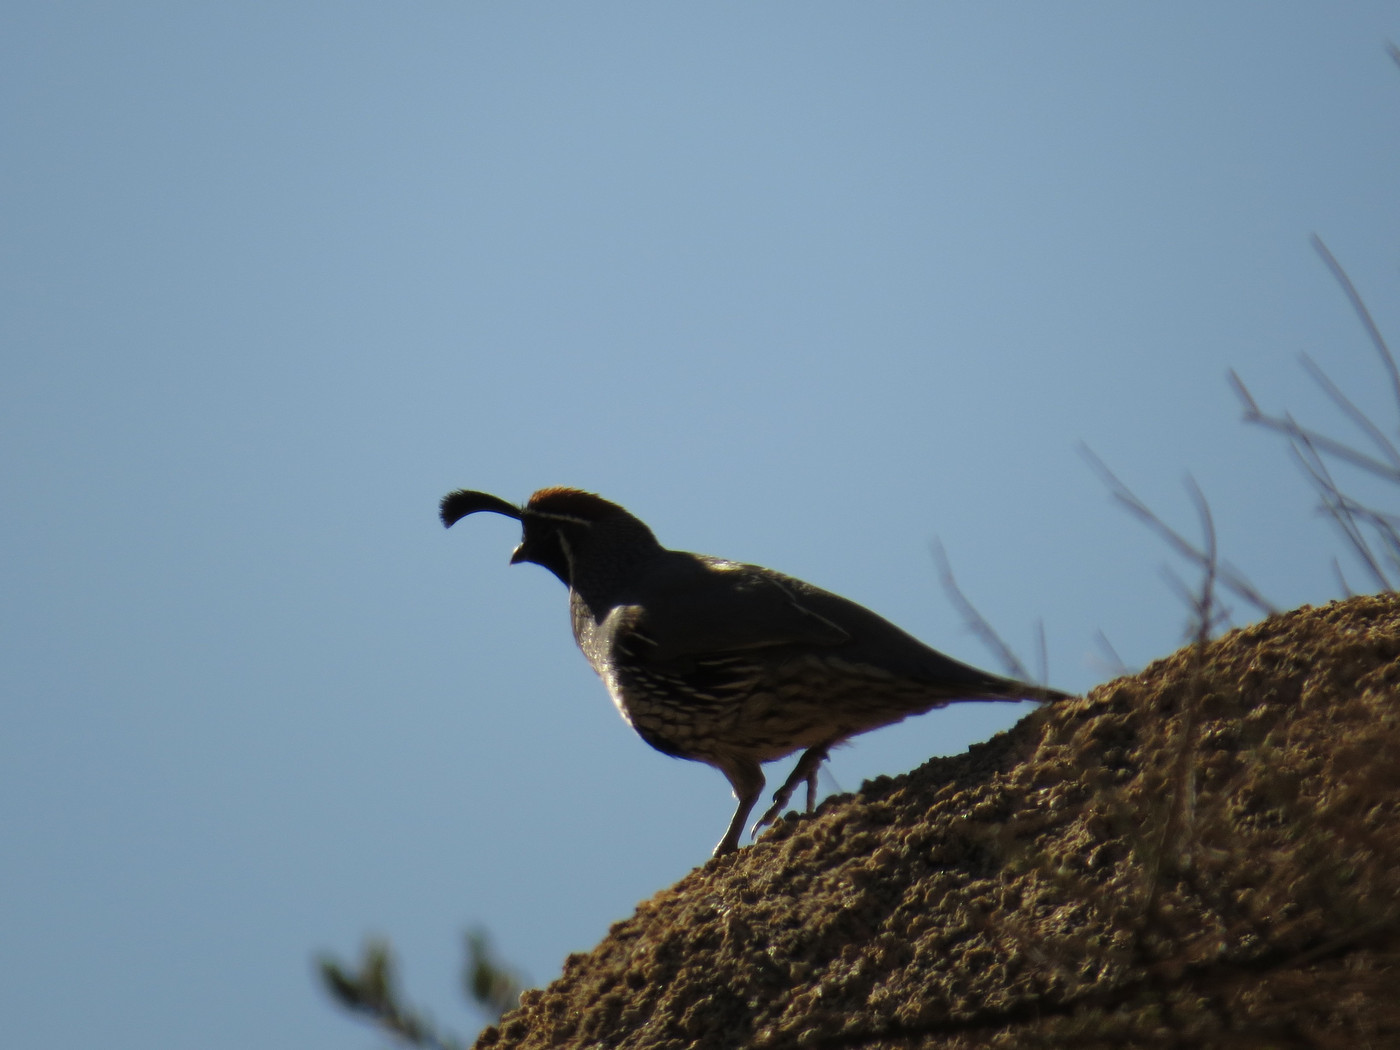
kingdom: Animalia
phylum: Chordata
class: Aves
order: Galliformes
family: Odontophoridae
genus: Callipepla
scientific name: Callipepla gambelii
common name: Gambel's quail
